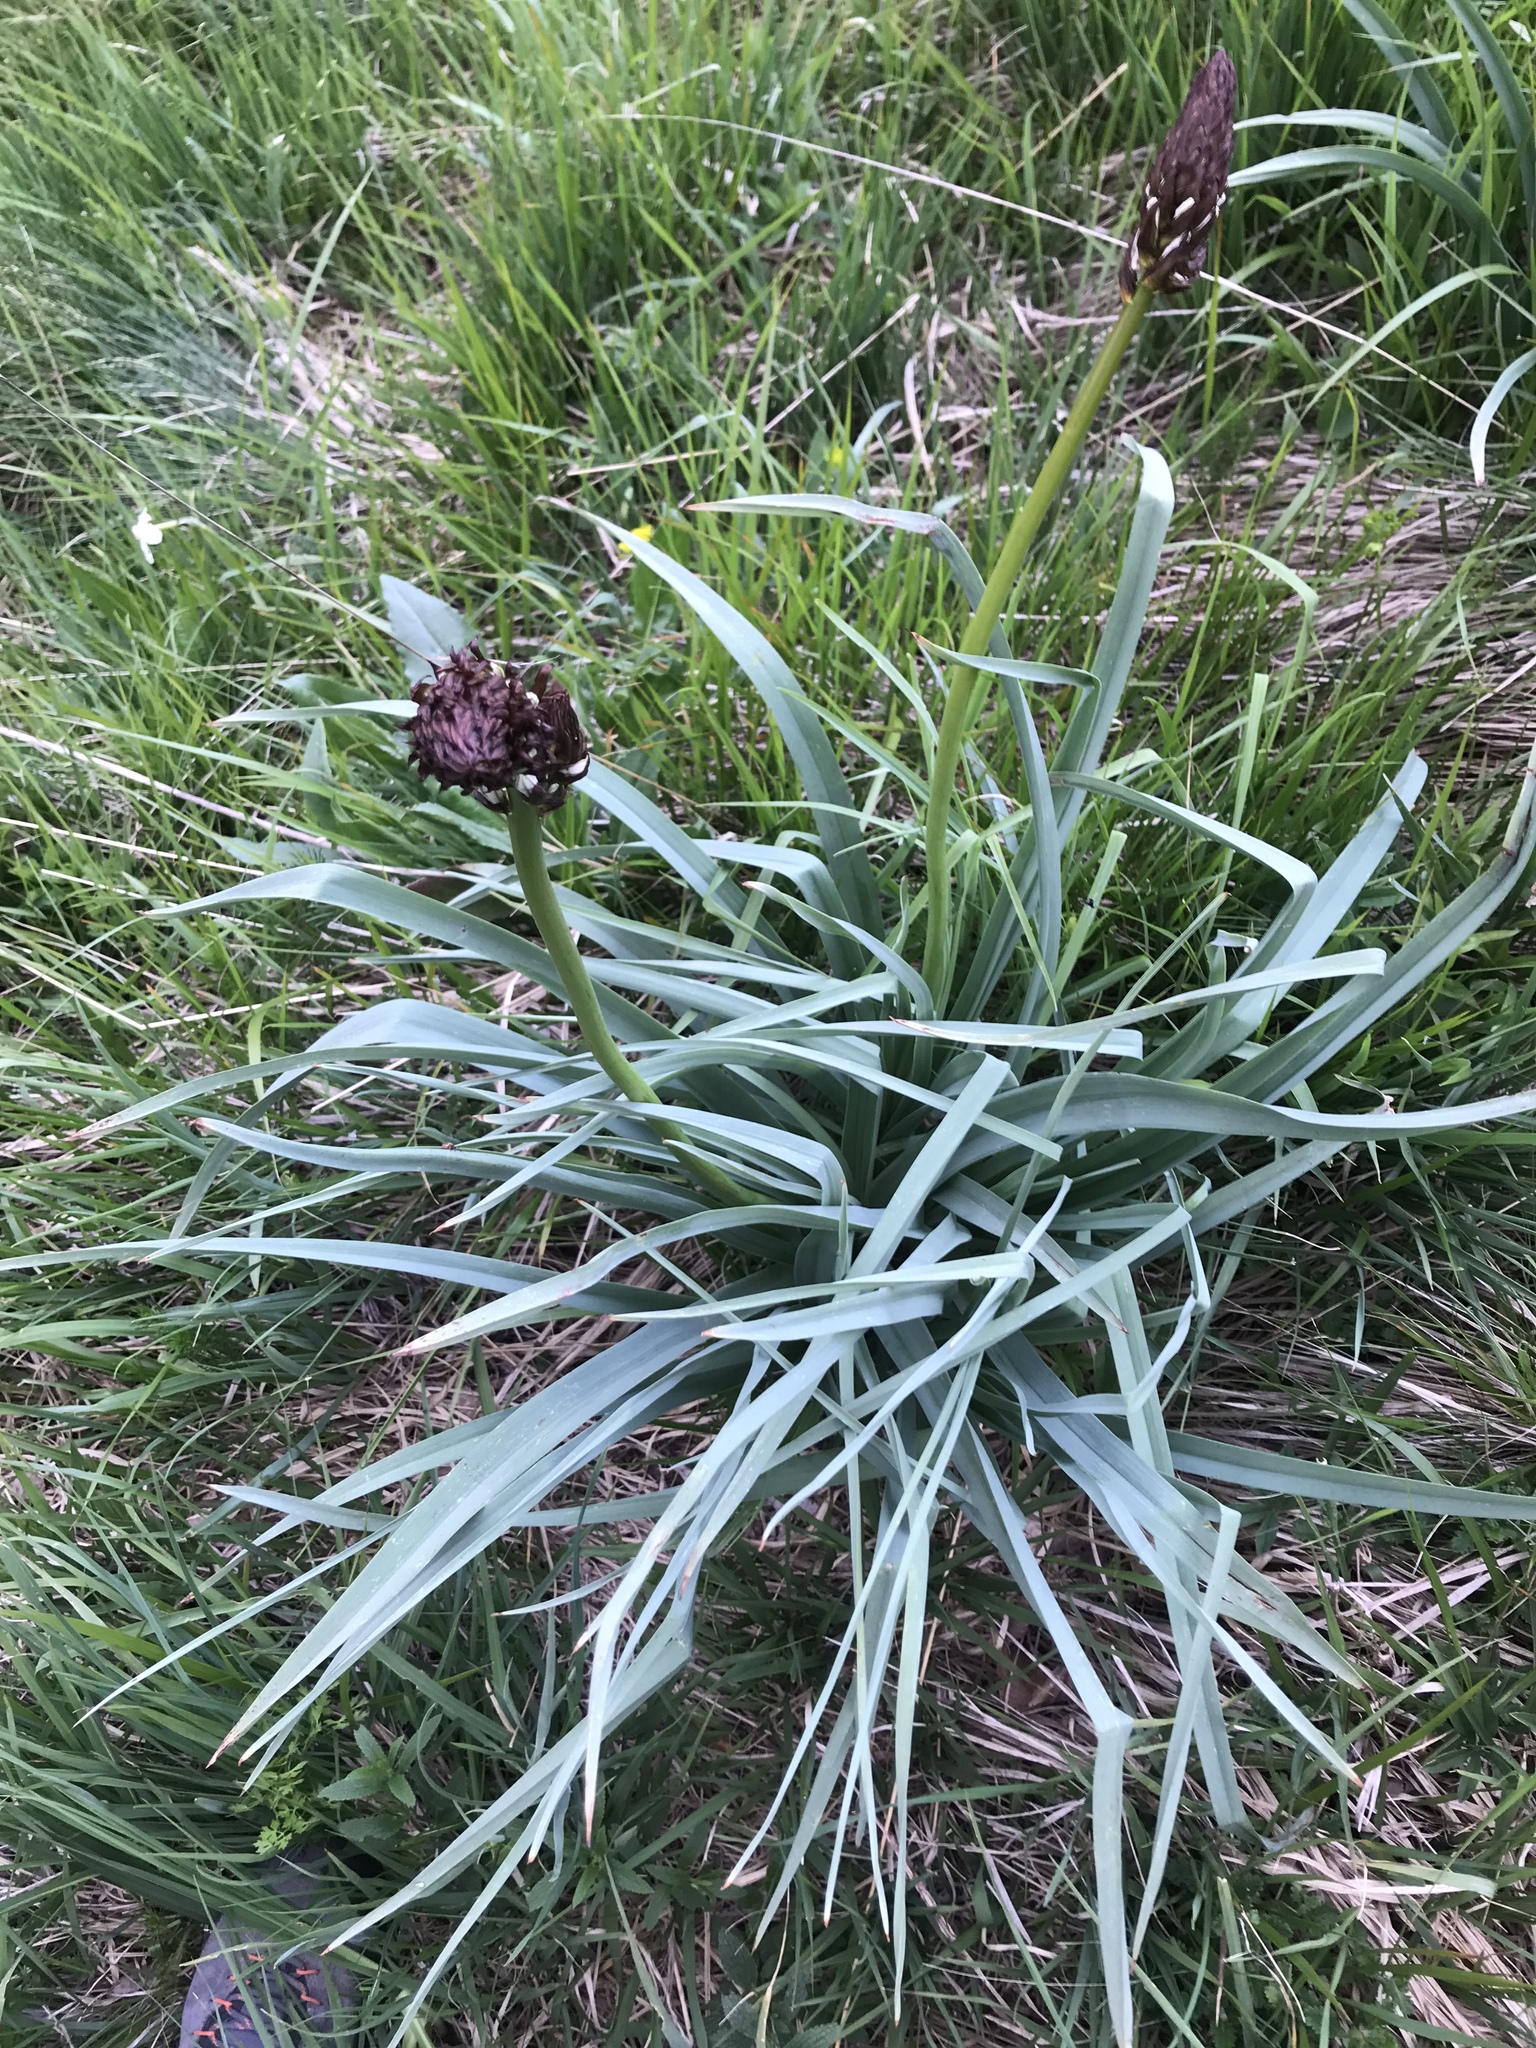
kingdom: Plantae
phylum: Tracheophyta
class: Liliopsida
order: Asparagales
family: Asphodelaceae
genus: Asphodelus
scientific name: Asphodelus albus
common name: White asphodel
